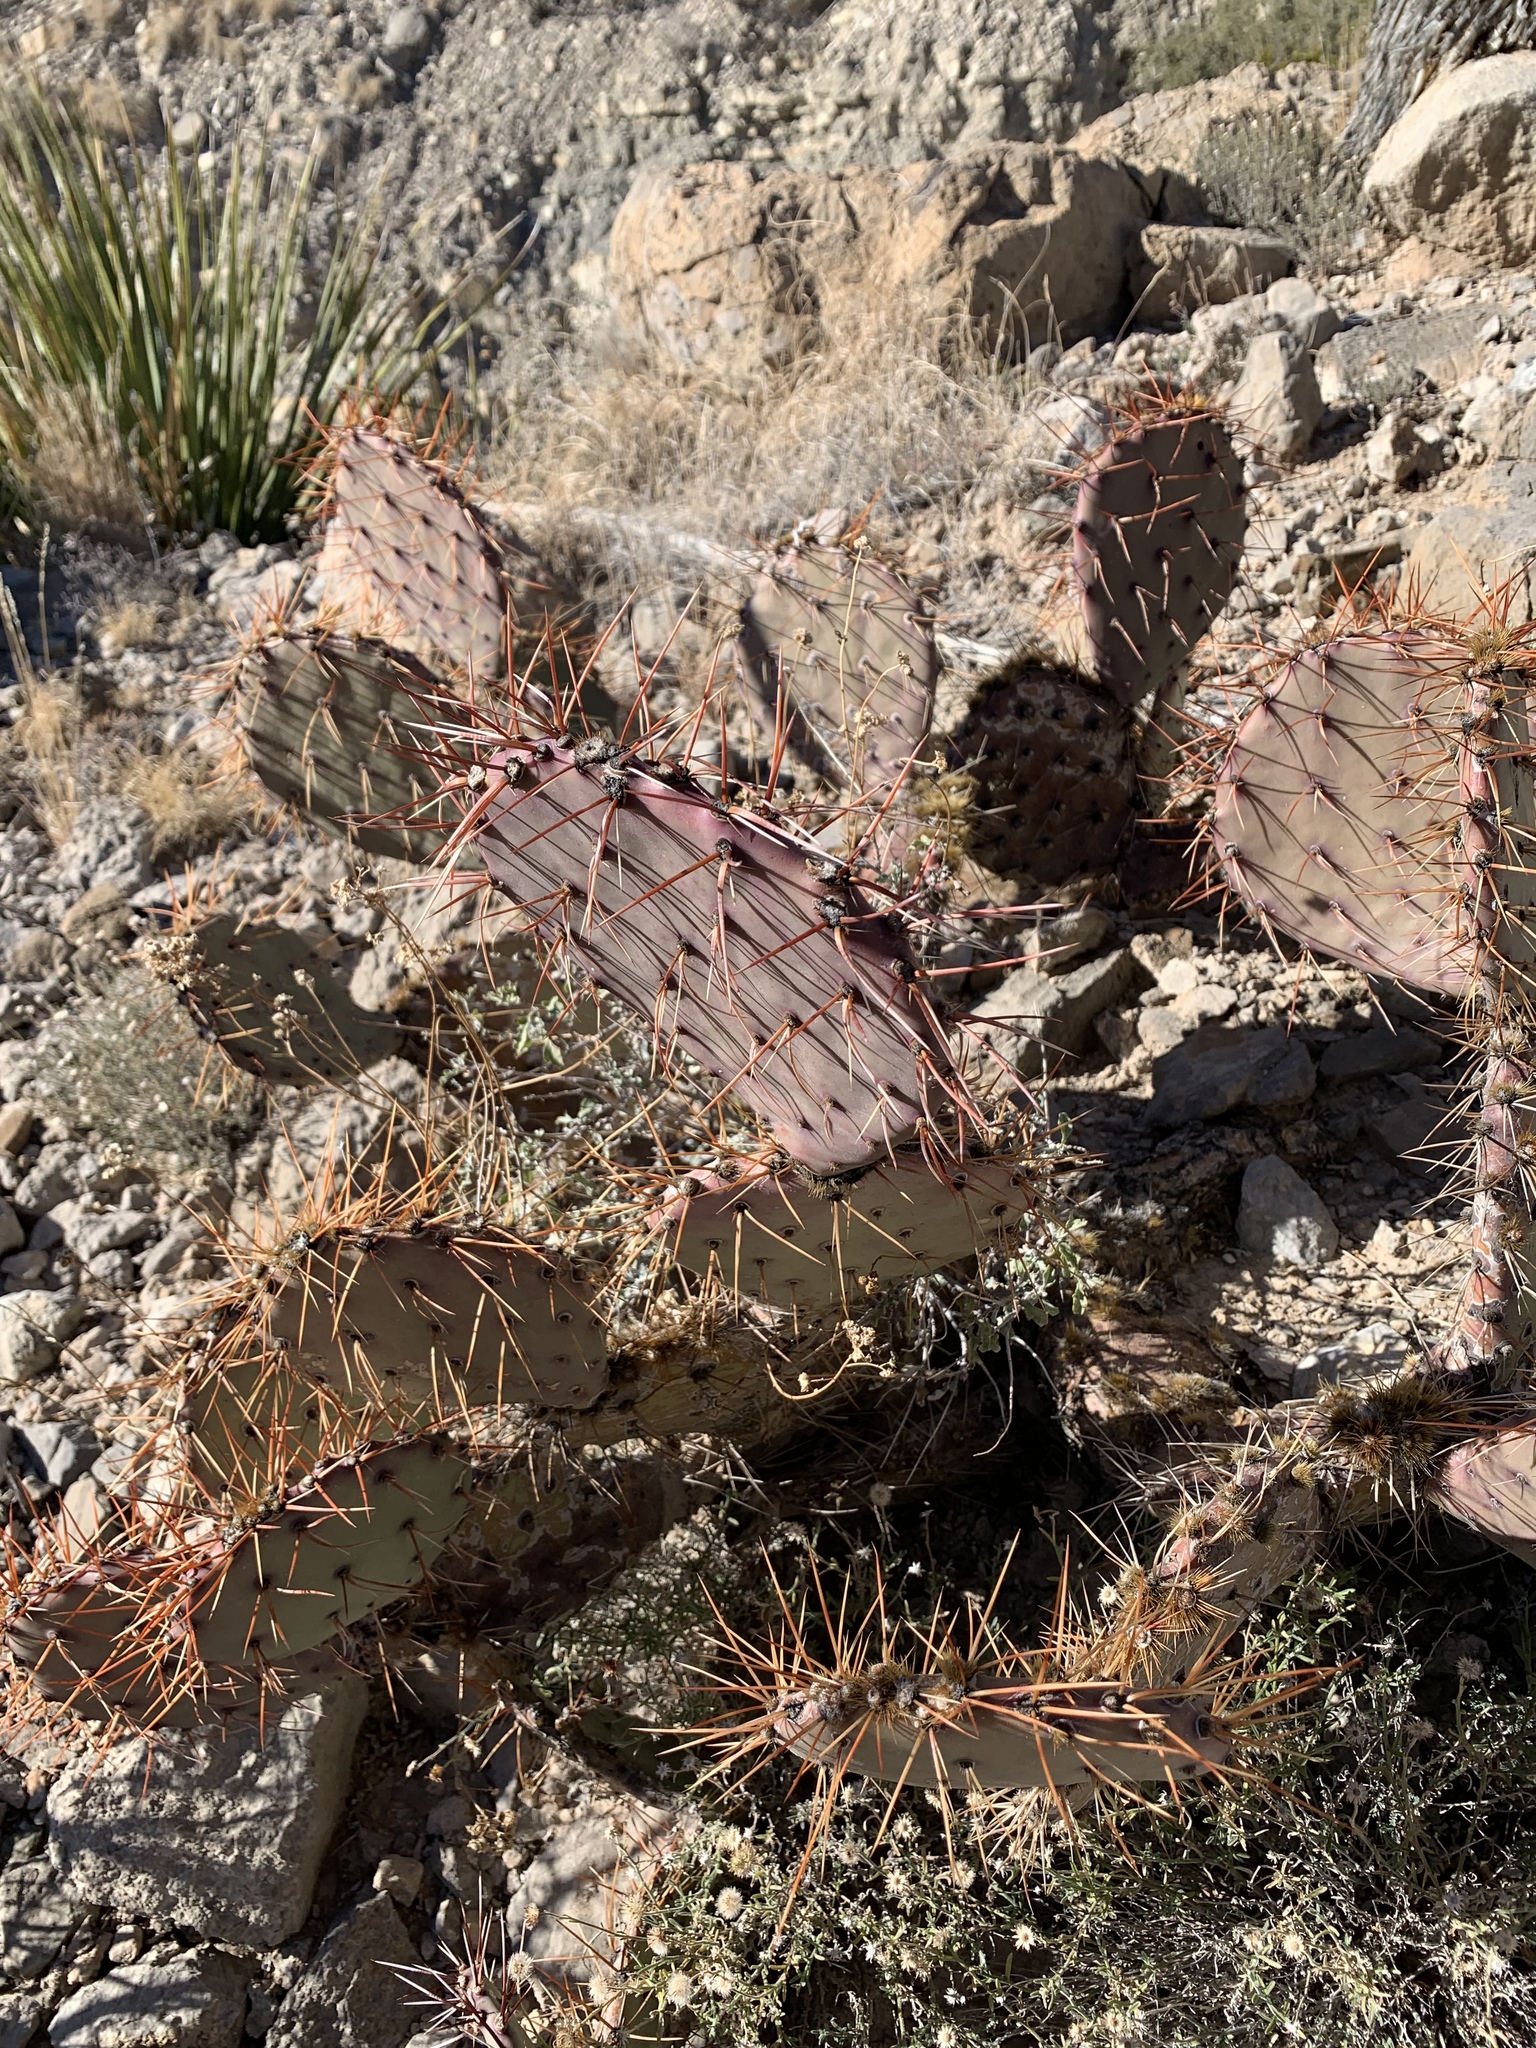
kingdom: Plantae
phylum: Tracheophyta
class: Magnoliopsida
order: Caryophyllales
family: Cactaceae
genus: Opuntia
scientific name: Opuntia macrocentra
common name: Purple prickly-pear
